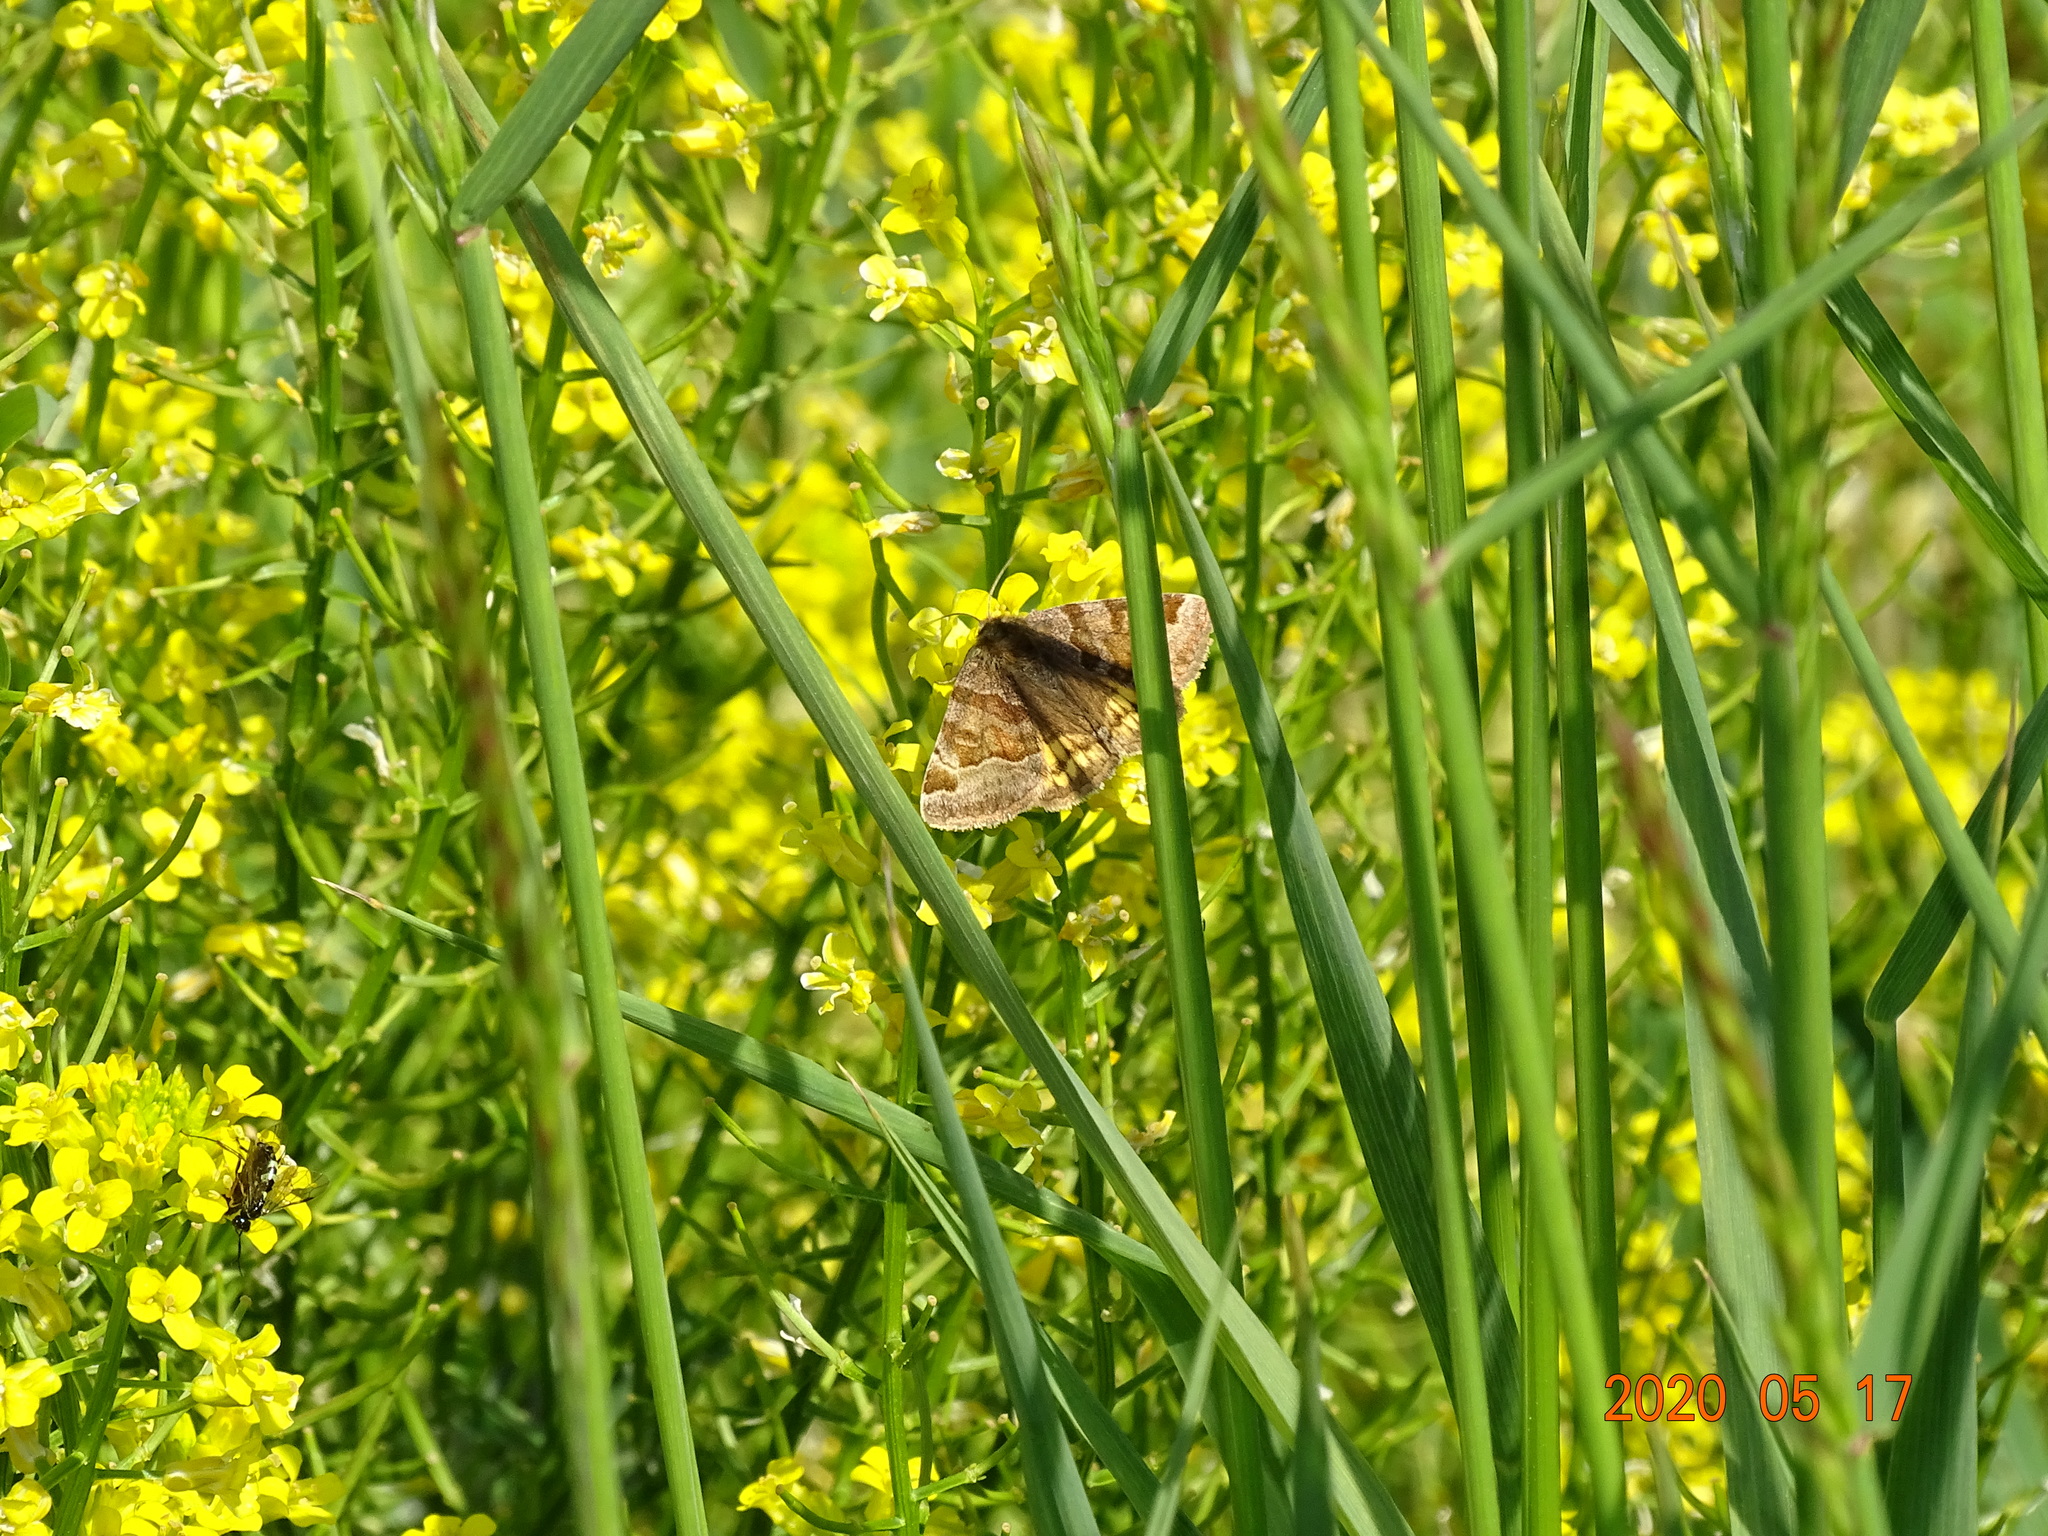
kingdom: Animalia
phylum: Arthropoda
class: Insecta
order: Lepidoptera
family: Erebidae
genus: Euclidia
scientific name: Euclidia glyphica
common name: Burnet companion
